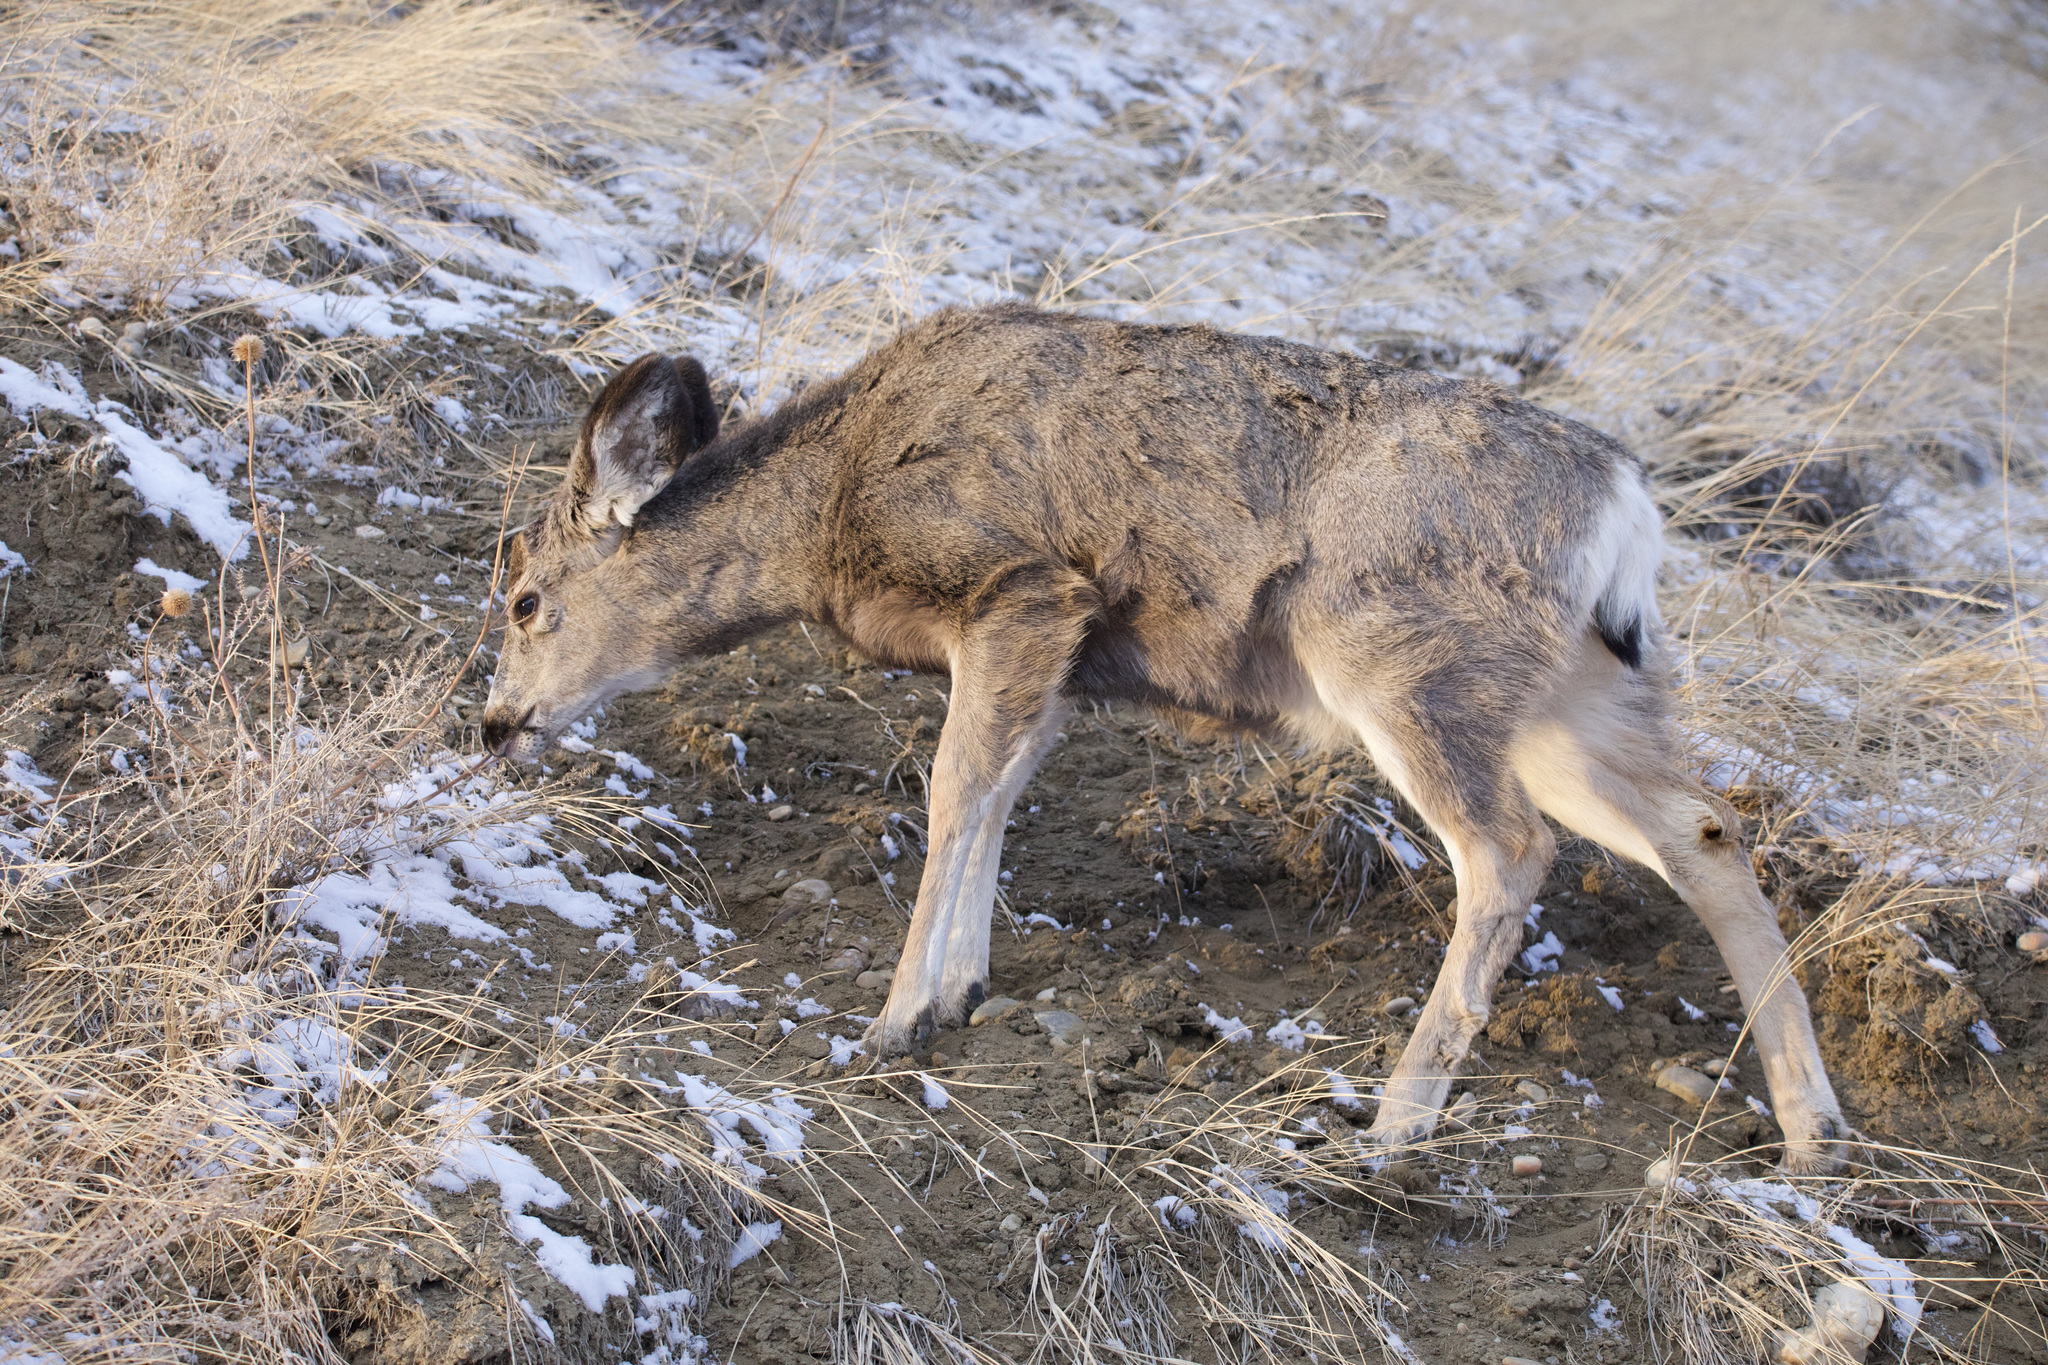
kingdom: Animalia
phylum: Chordata
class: Mammalia
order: Artiodactyla
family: Cervidae
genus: Odocoileus
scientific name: Odocoileus hemionus
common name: Mule deer
